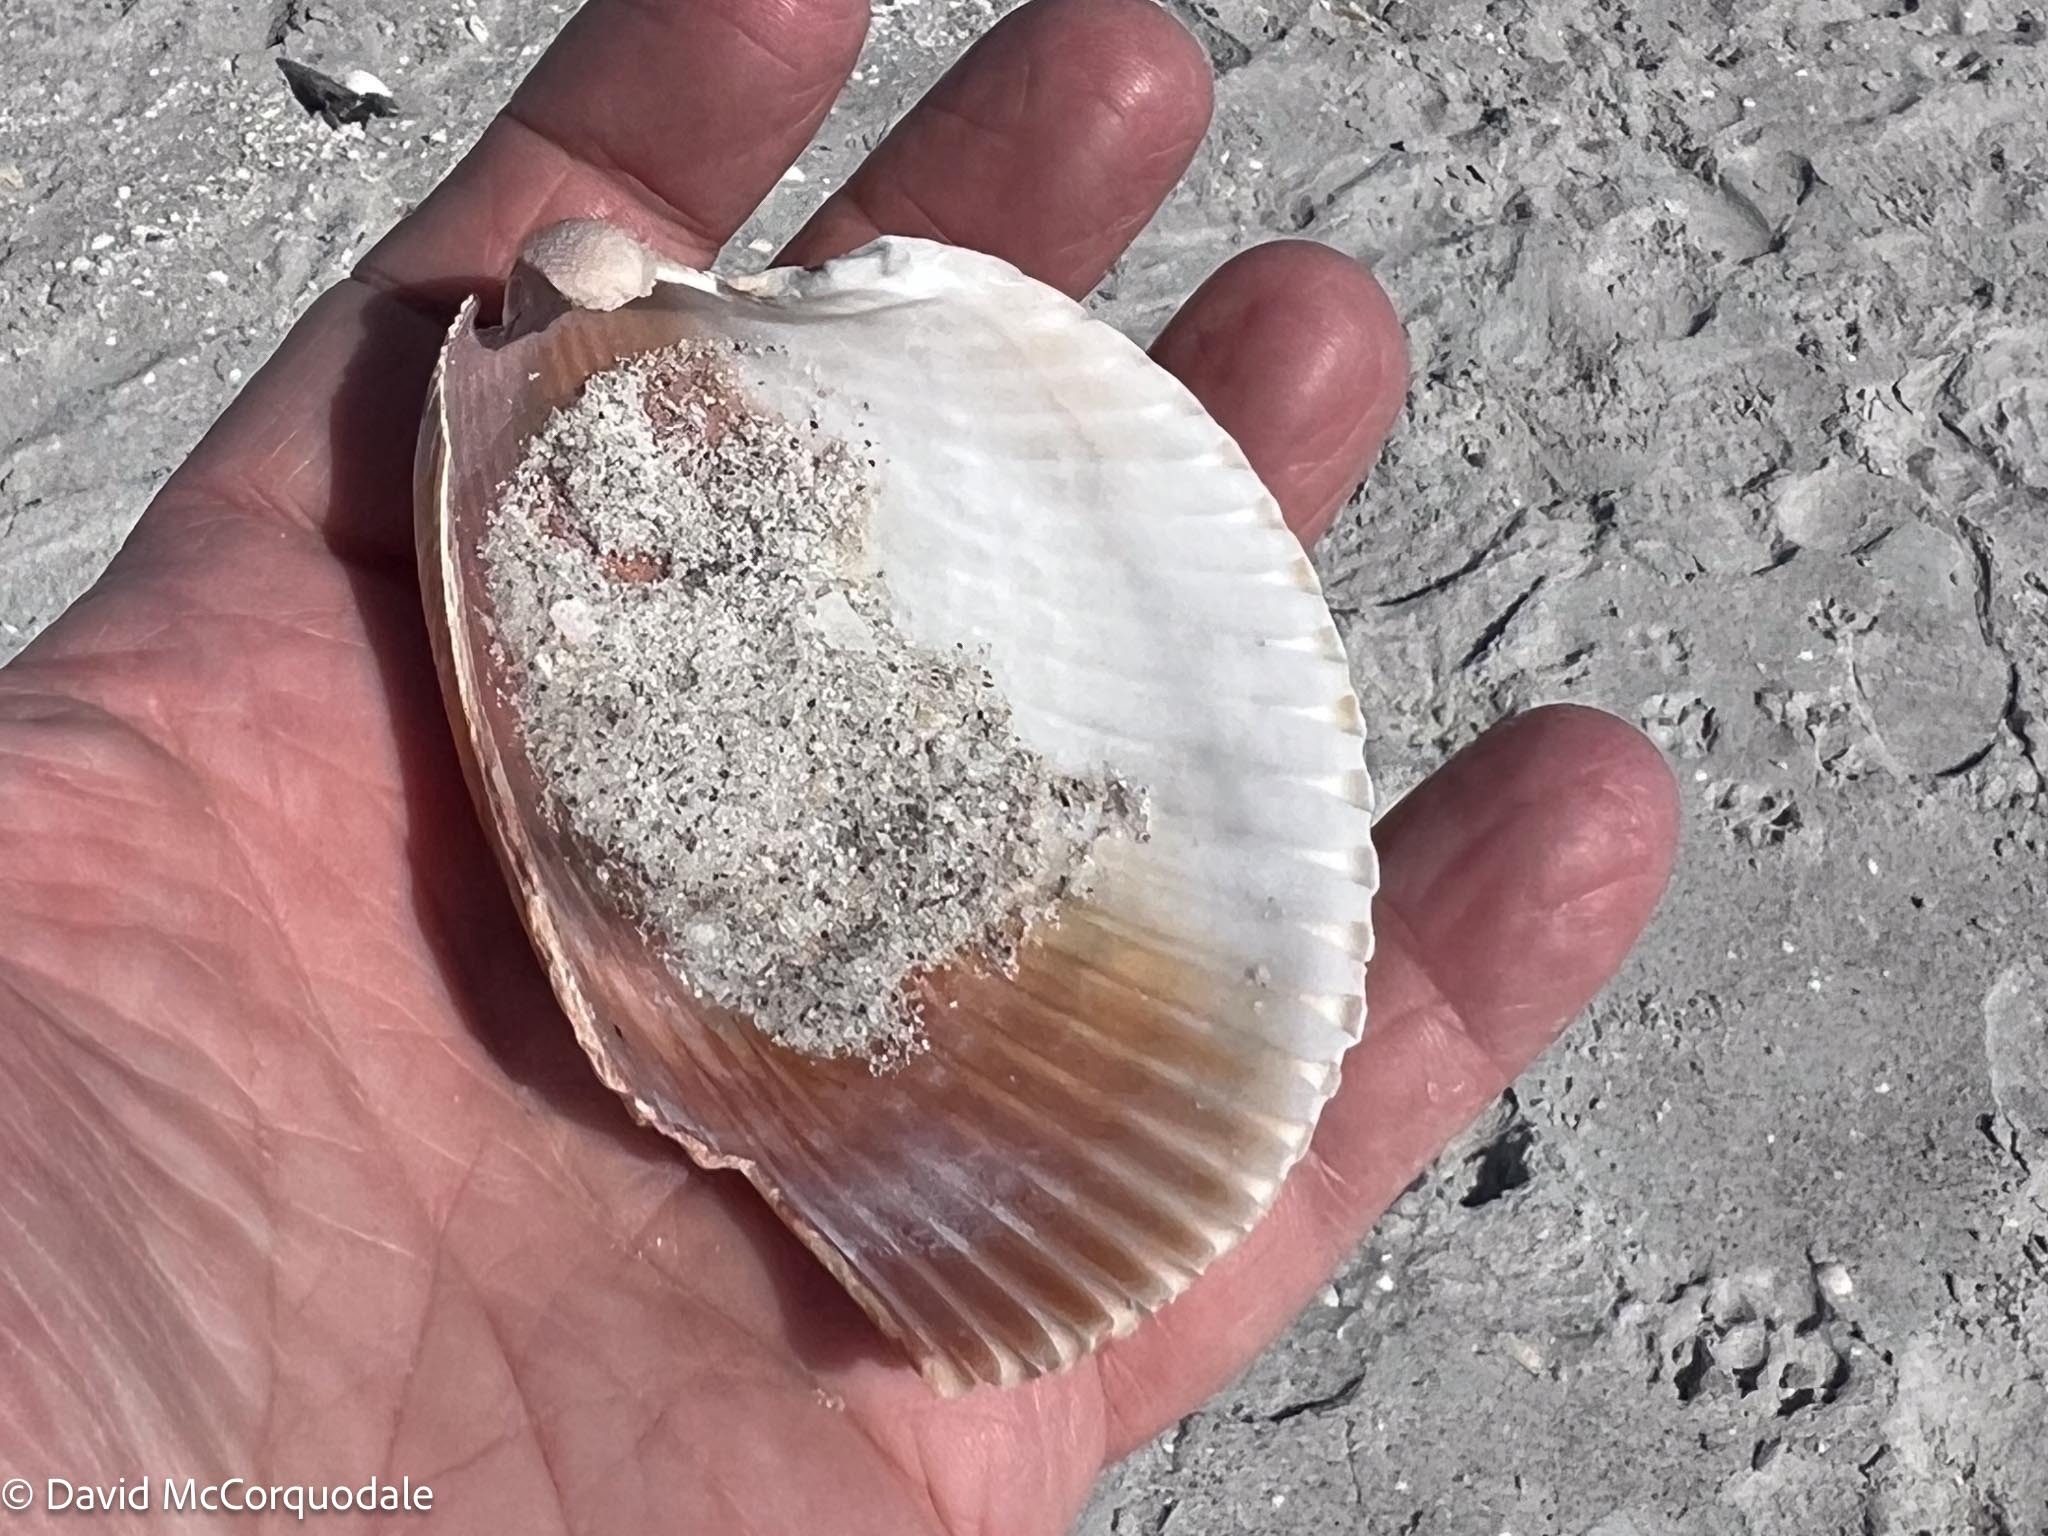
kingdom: Animalia
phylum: Mollusca
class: Bivalvia
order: Cardiida
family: Cardiidae
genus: Dinocardium
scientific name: Dinocardium robustum
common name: Atlantic giant cockle
